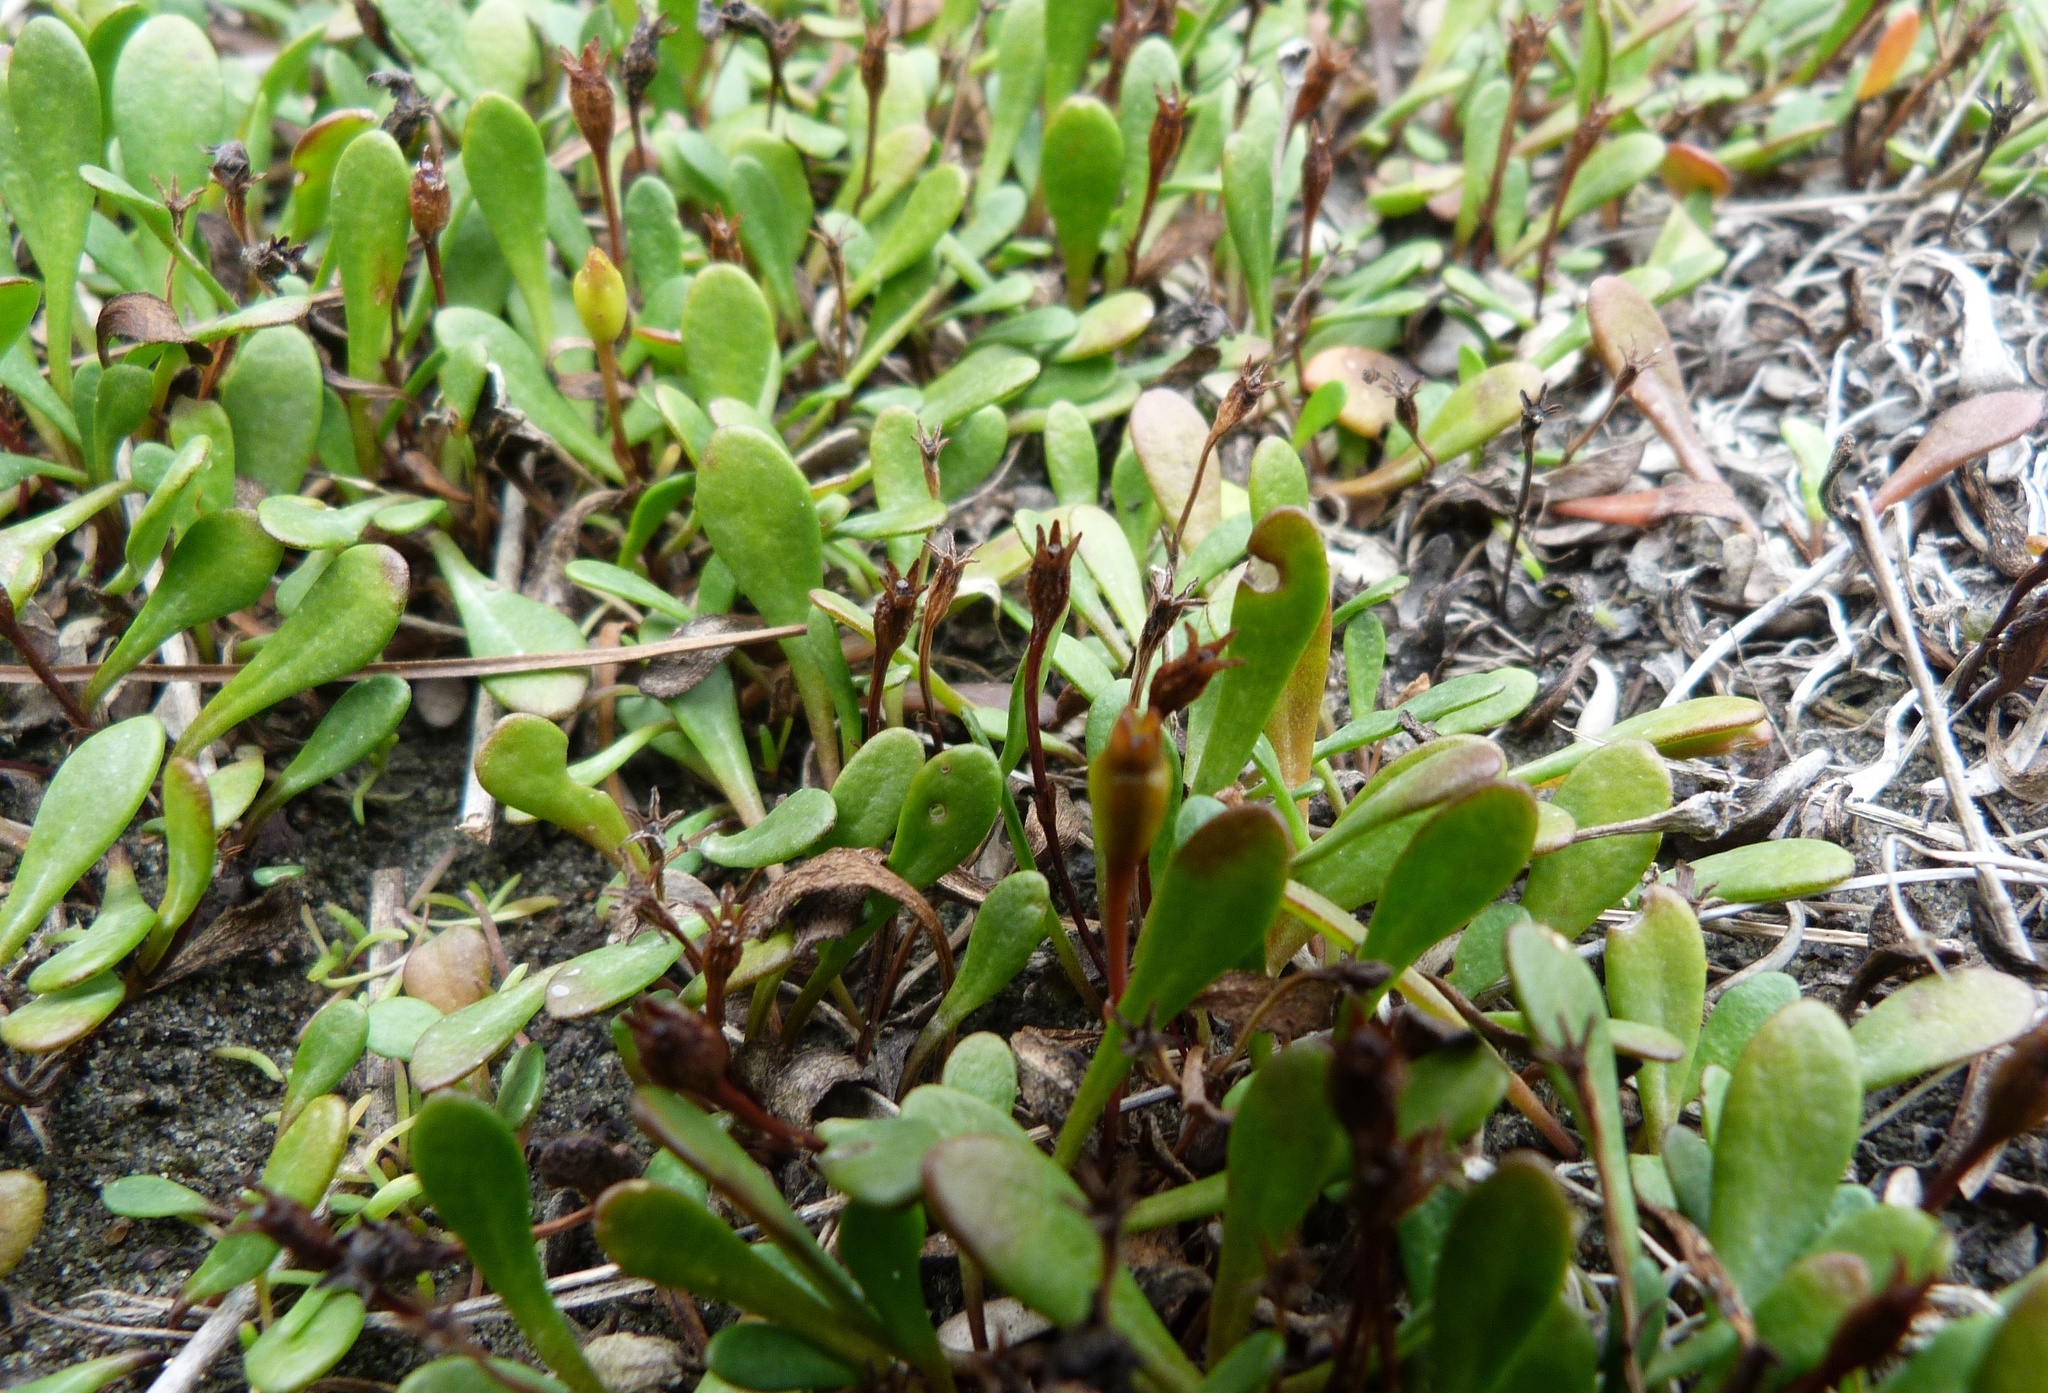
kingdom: Plantae
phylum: Tracheophyta
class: Magnoliopsida
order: Asterales
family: Goodeniaceae
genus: Goodenia
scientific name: Goodenia radicans
